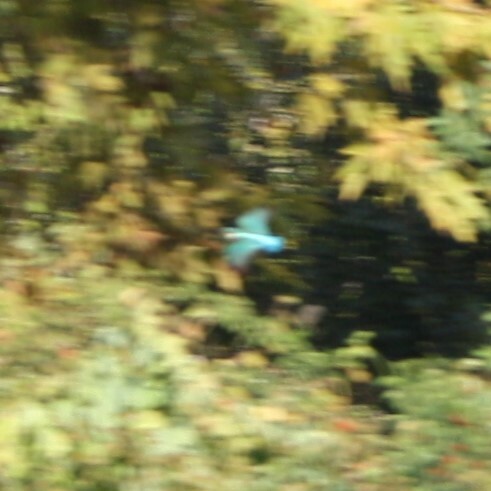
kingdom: Animalia
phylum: Chordata
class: Aves
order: Coraciiformes
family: Alcedinidae
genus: Alcedo
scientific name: Alcedo atthis
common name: Common kingfisher
